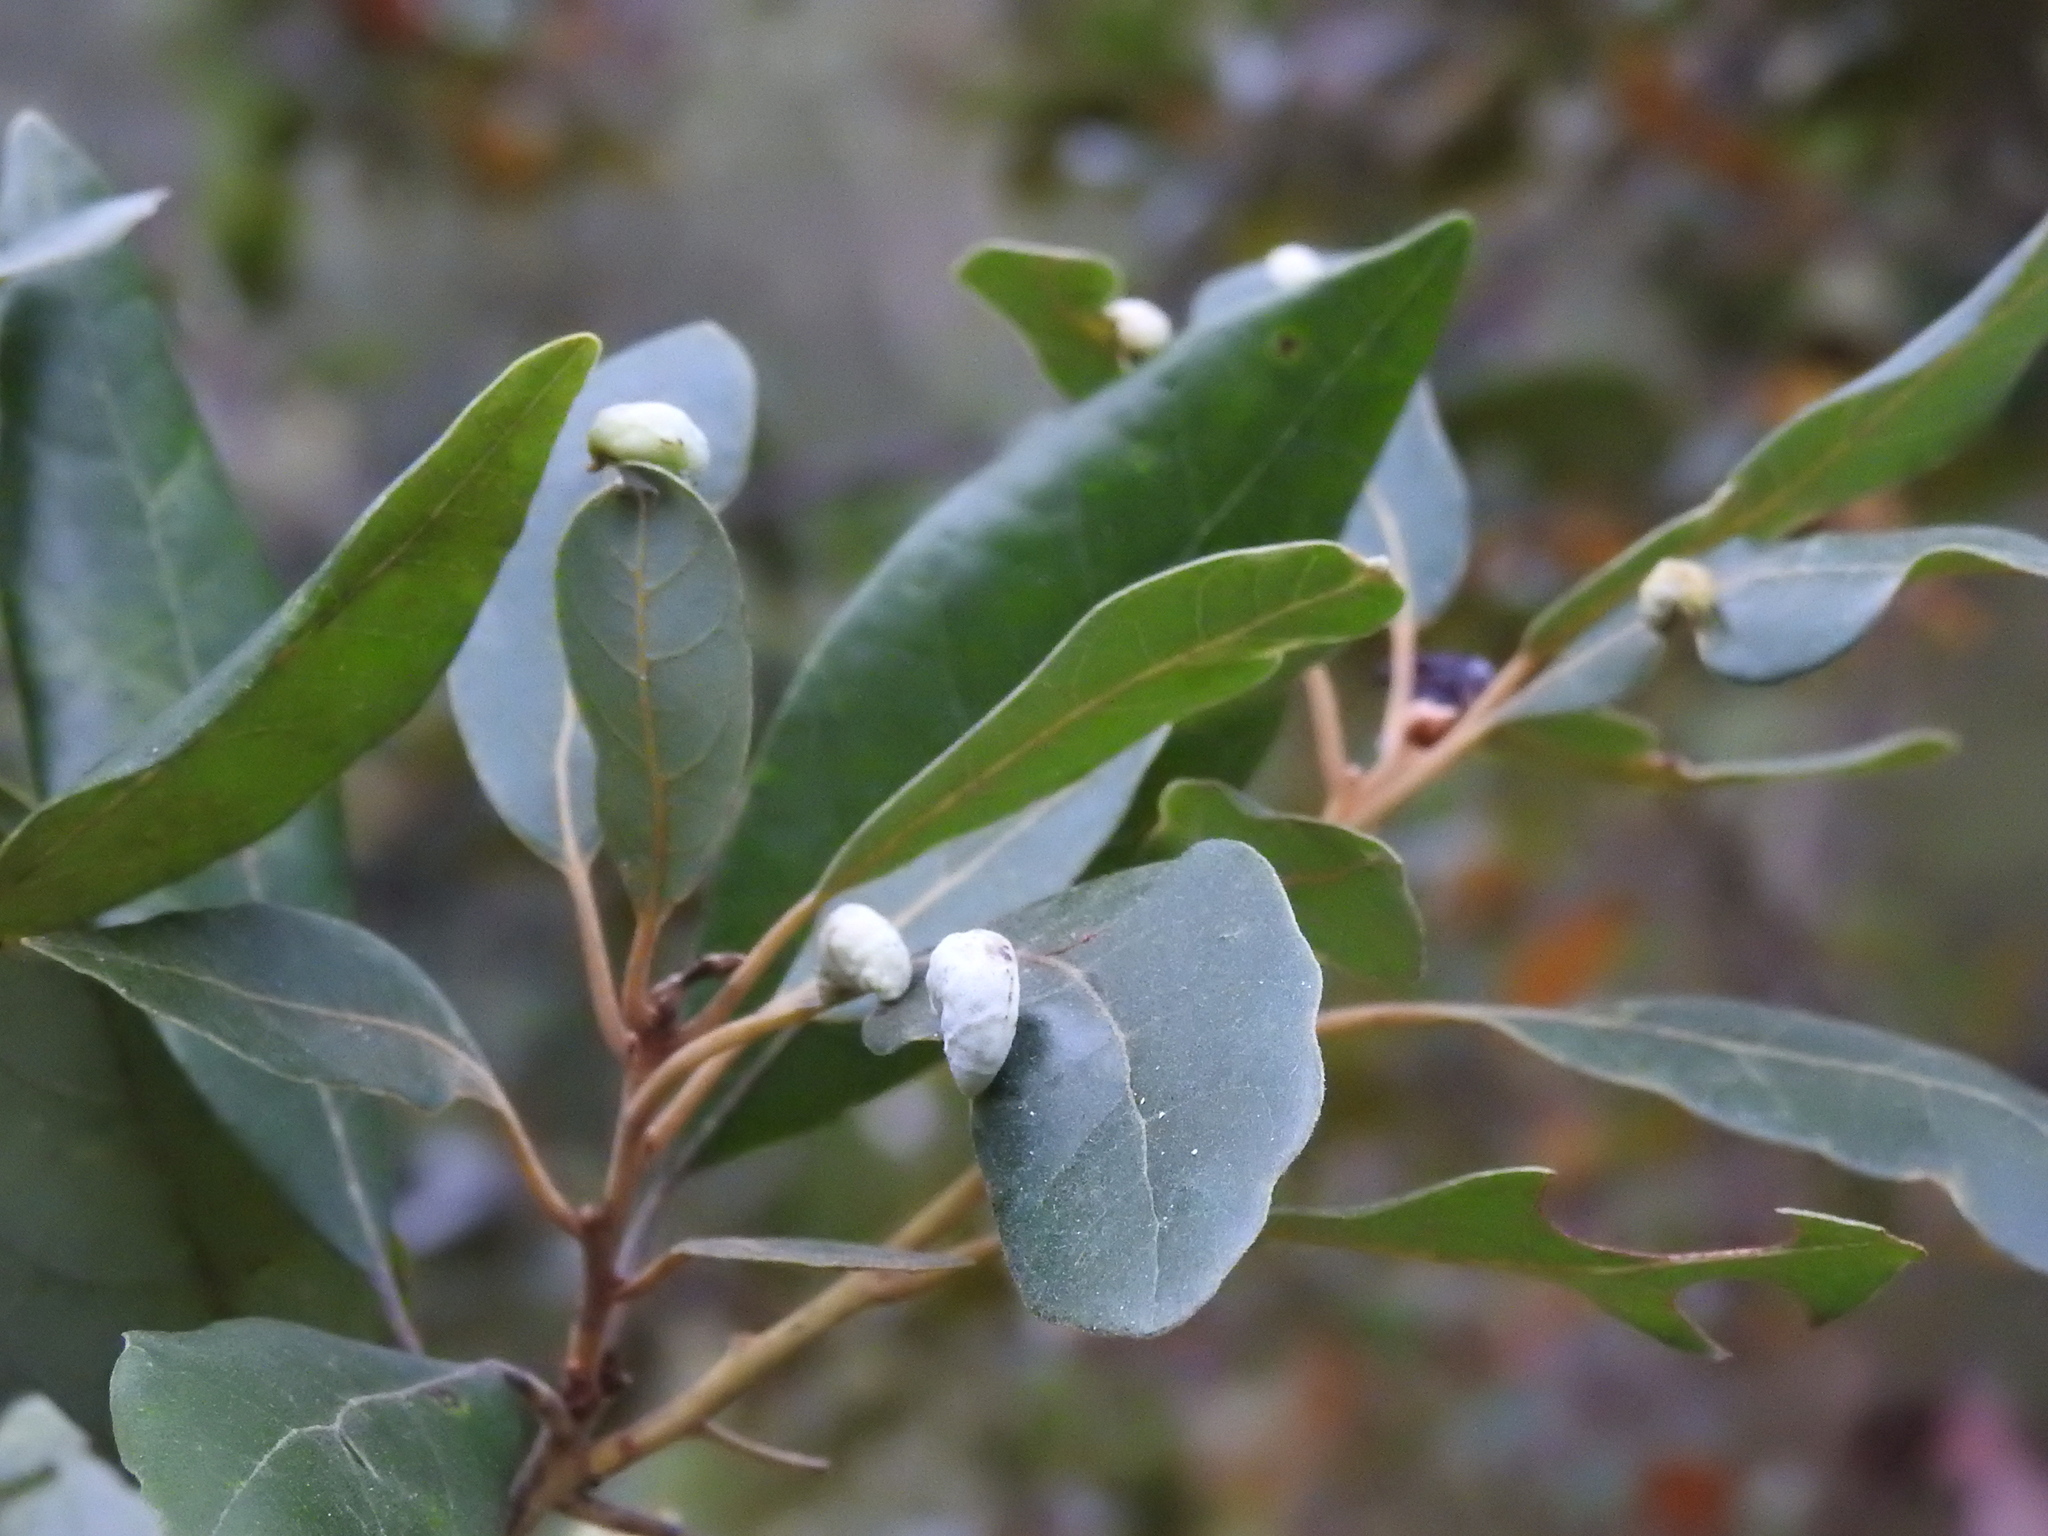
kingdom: Animalia
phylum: Arthropoda
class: Insecta
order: Hemiptera
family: Triozidae
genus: Trioza
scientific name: Trioza magnoliae
